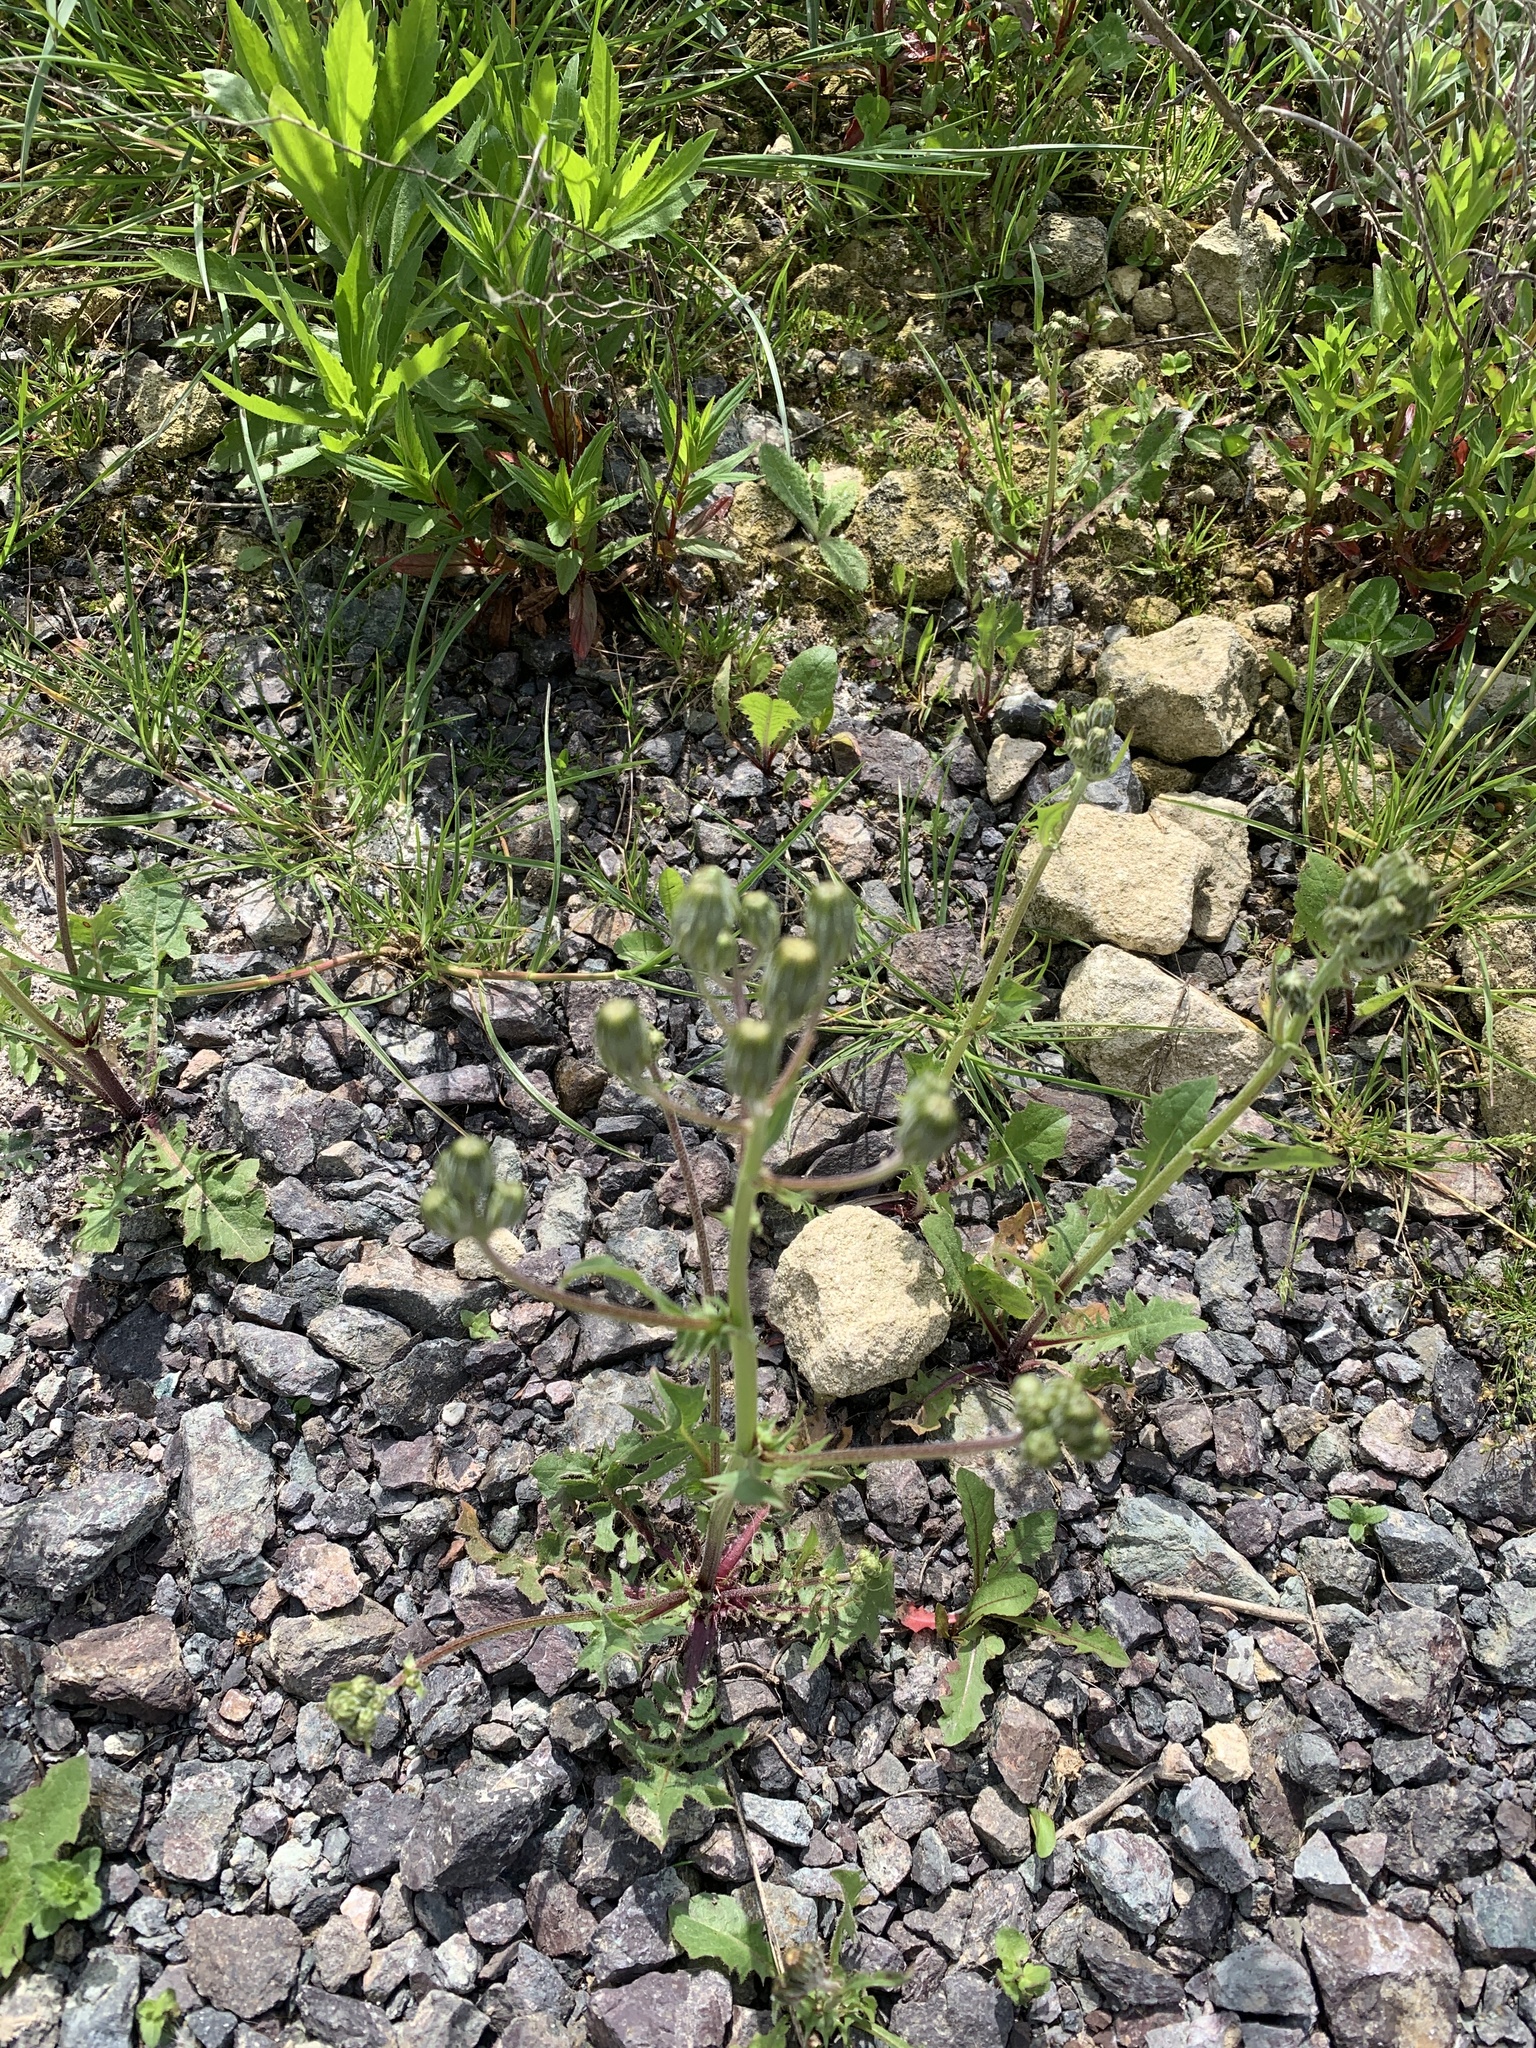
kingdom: Plantae
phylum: Tracheophyta
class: Magnoliopsida
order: Asterales
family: Asteraceae
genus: Sonchus
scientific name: Sonchus asper
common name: Prickly sow-thistle
